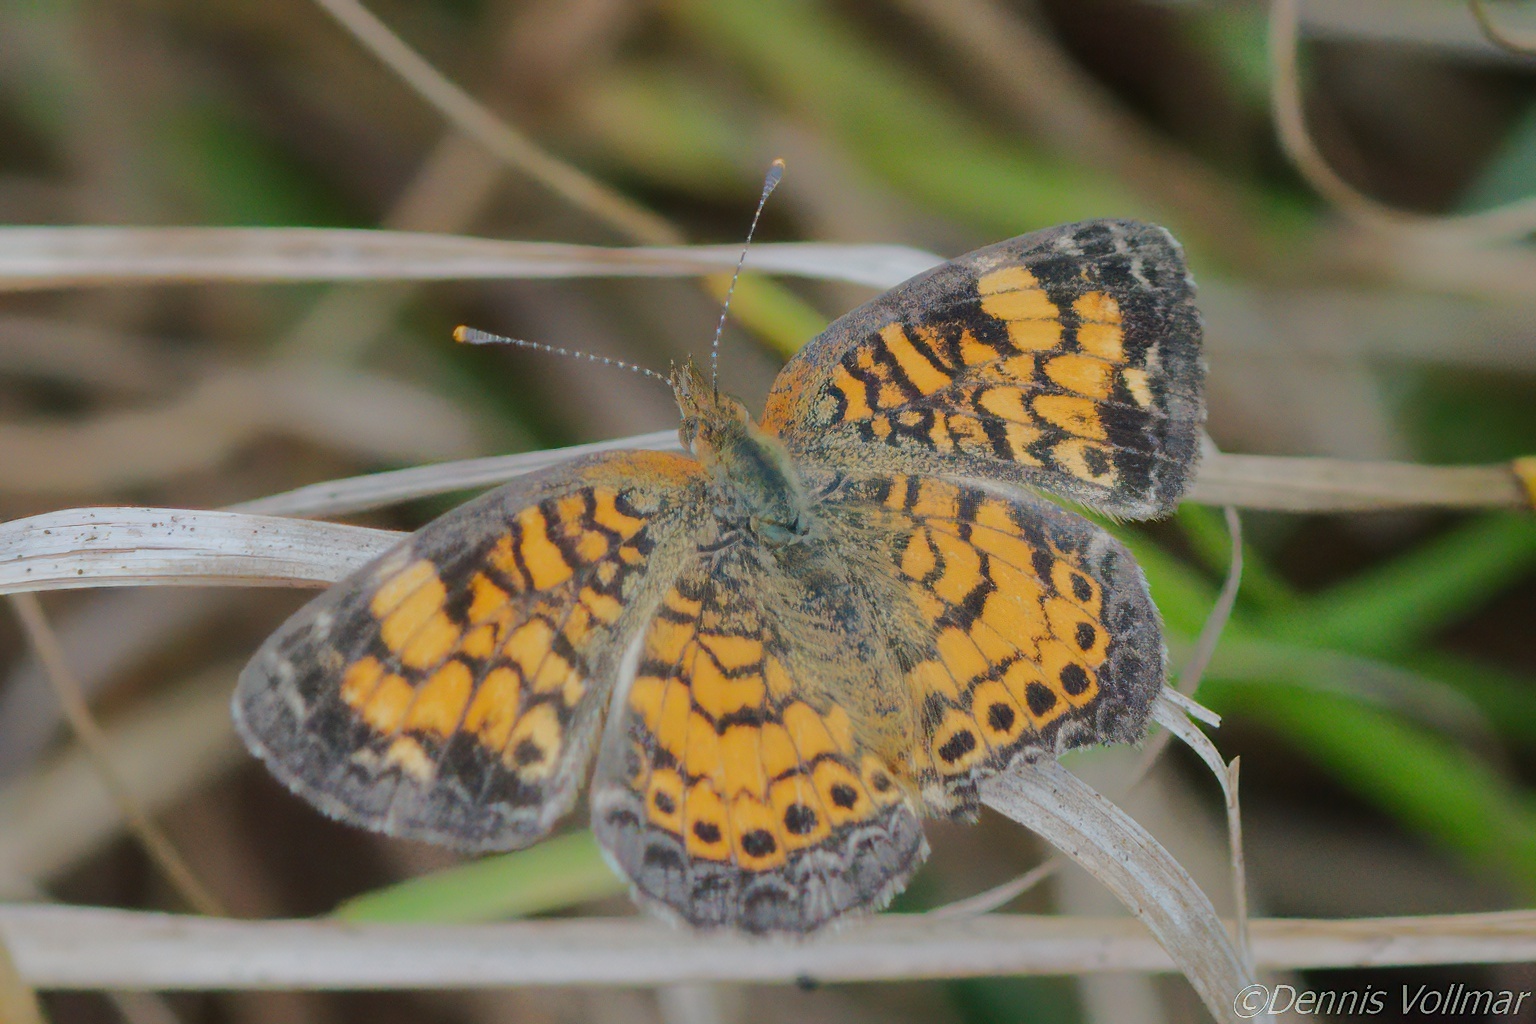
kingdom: Animalia
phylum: Arthropoda
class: Insecta
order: Lepidoptera
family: Nymphalidae
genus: Phyciodes
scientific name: Phyciodes tharos
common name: Pearl crescent
